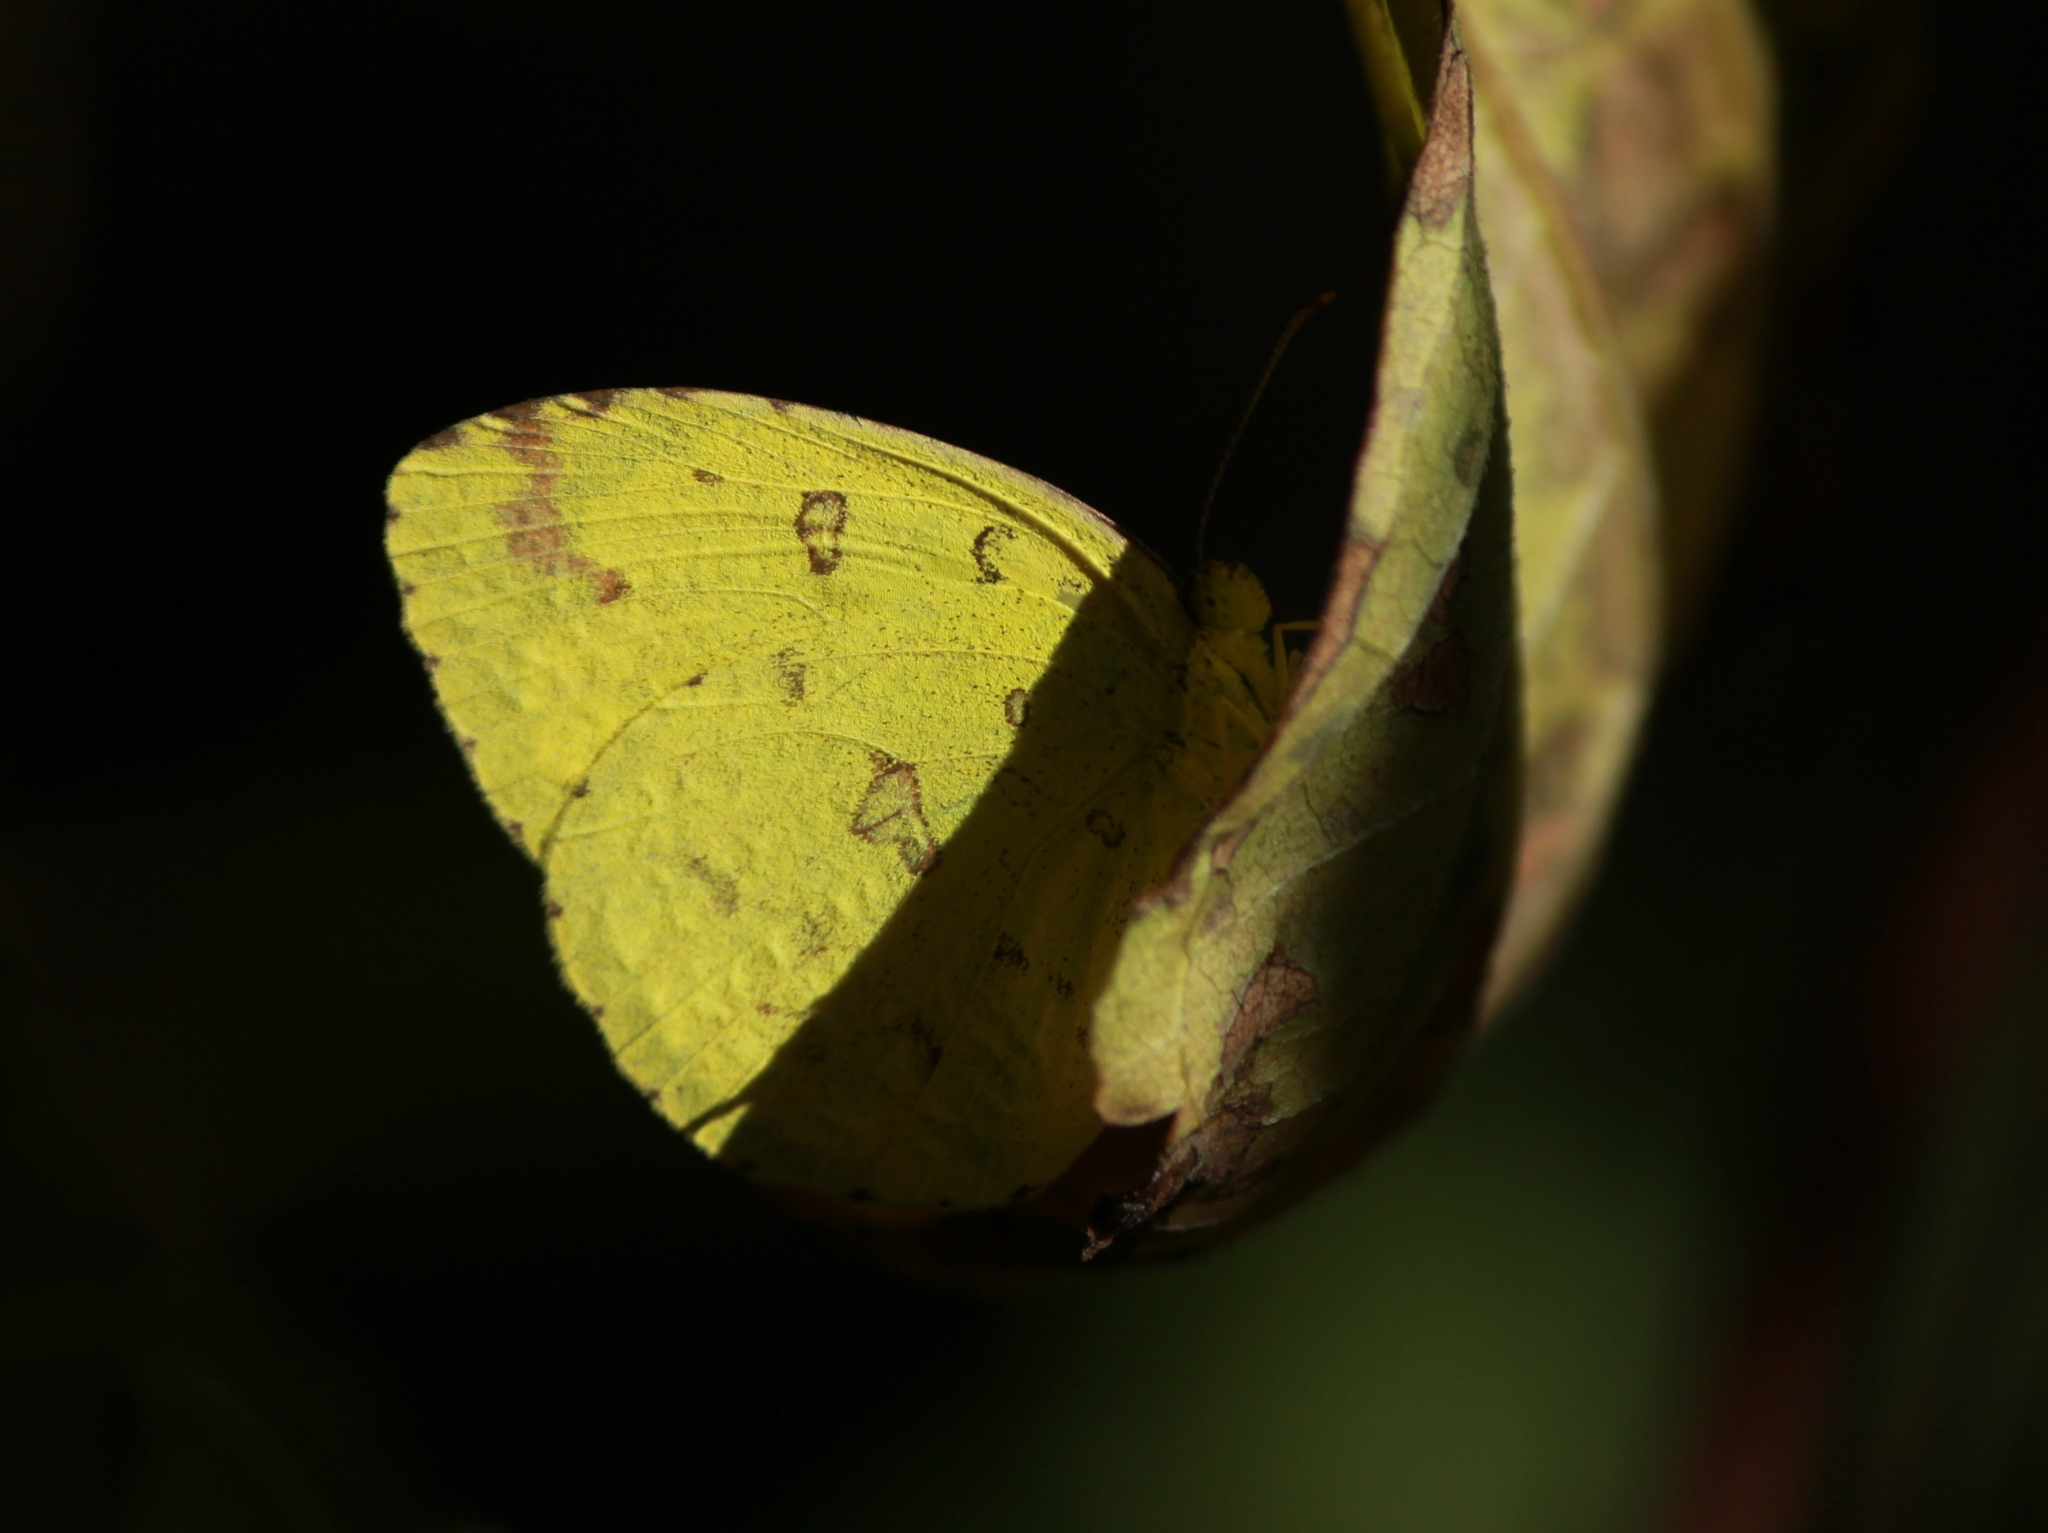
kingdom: Animalia
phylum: Arthropoda
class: Insecta
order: Lepidoptera
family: Pieridae
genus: Eurema
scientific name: Eurema hecabe
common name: Pale grass yellow
